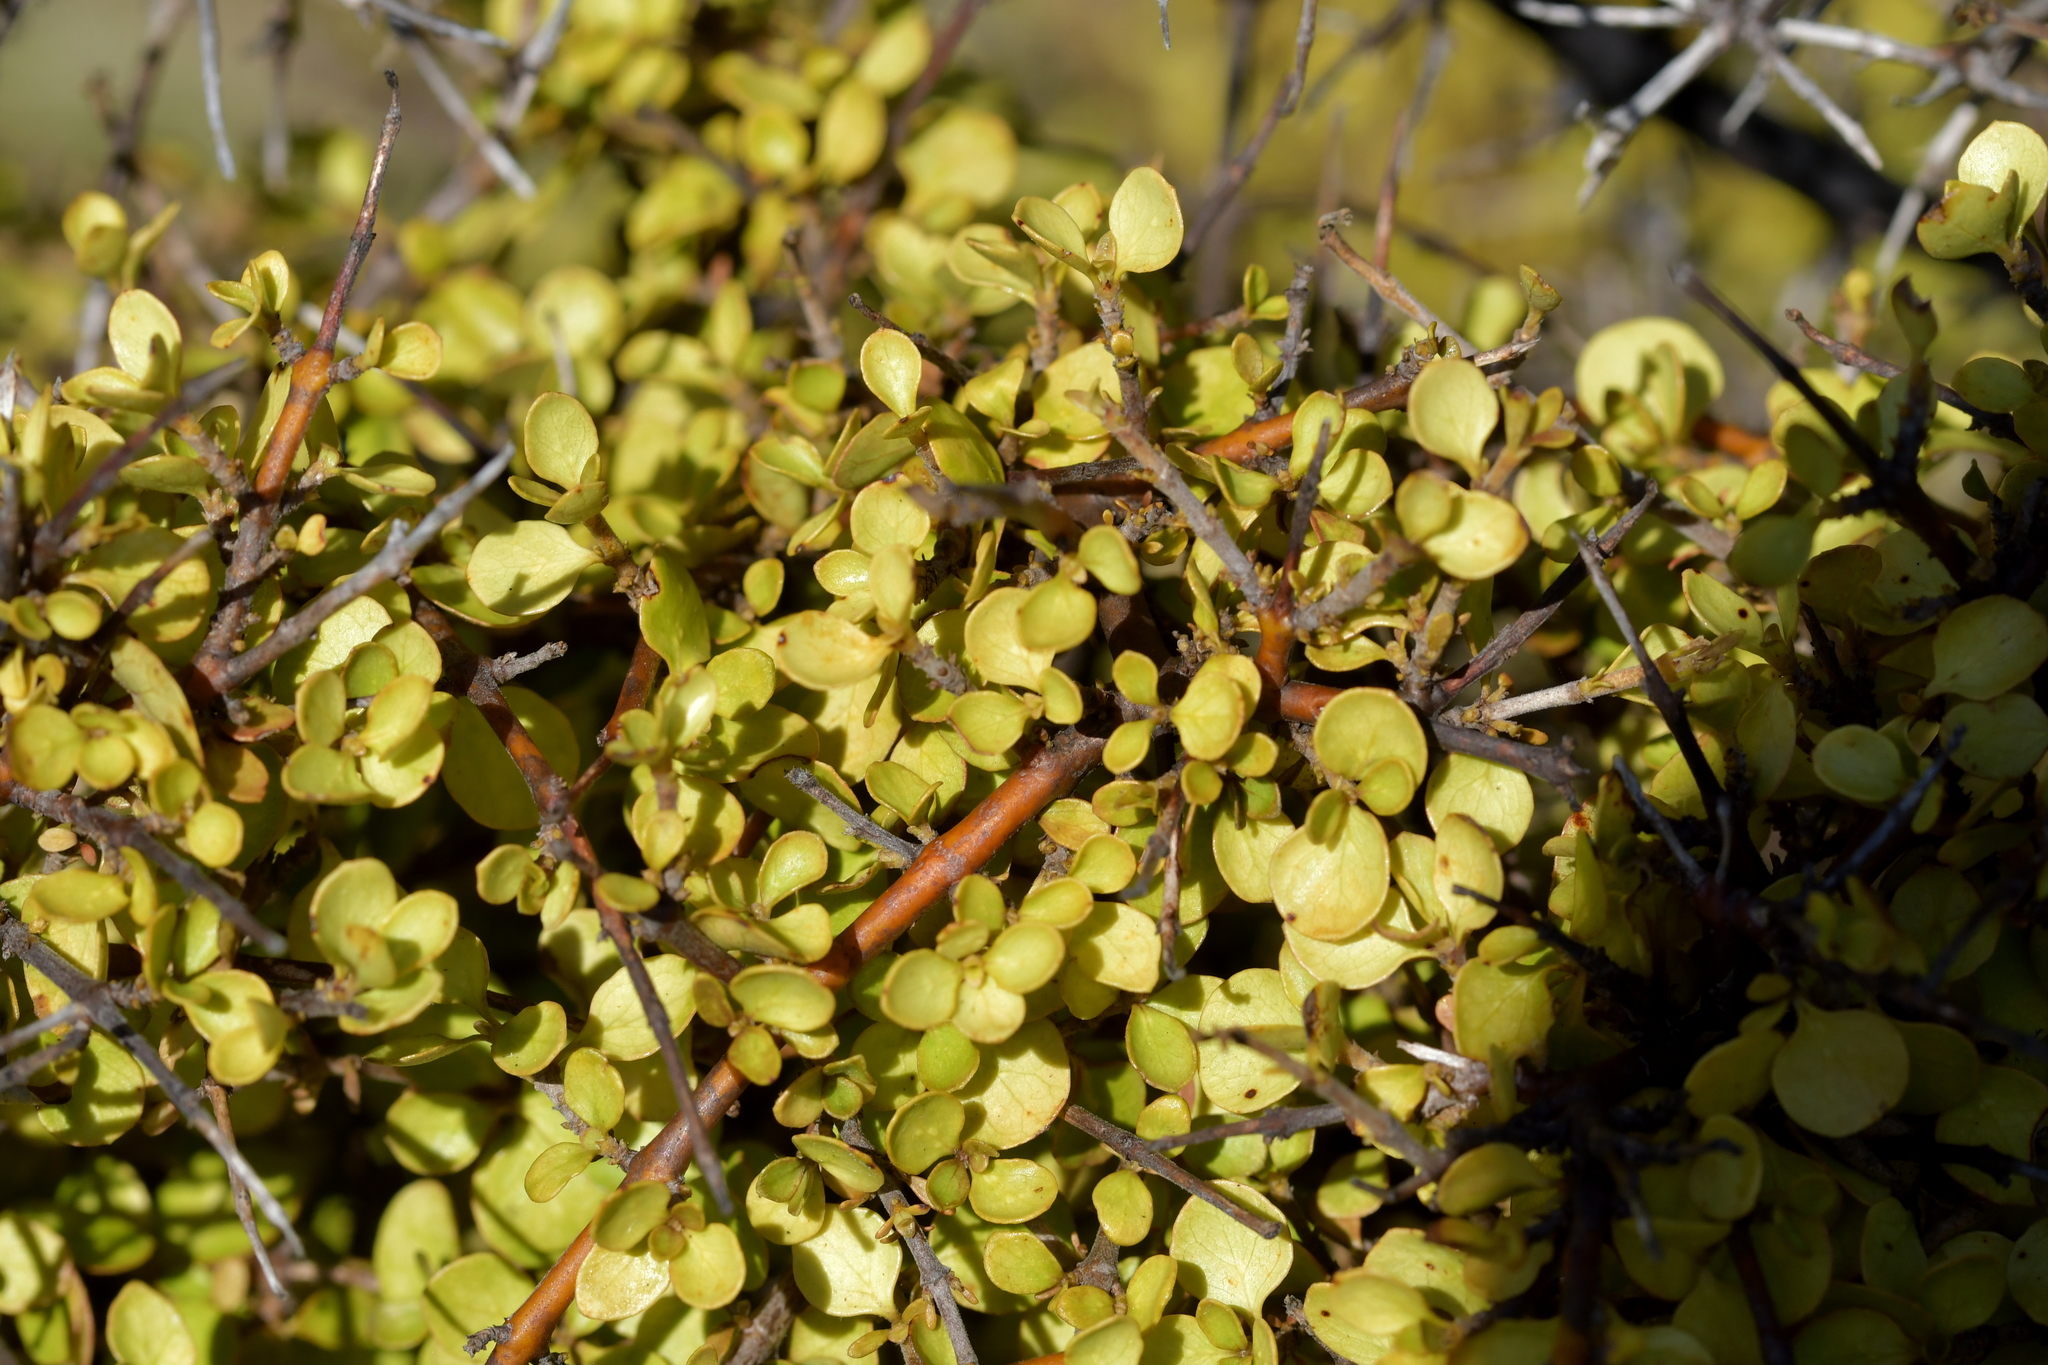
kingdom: Plantae
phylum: Tracheophyta
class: Magnoliopsida
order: Ericales
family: Primulaceae
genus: Myrsine
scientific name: Myrsine divaricata
